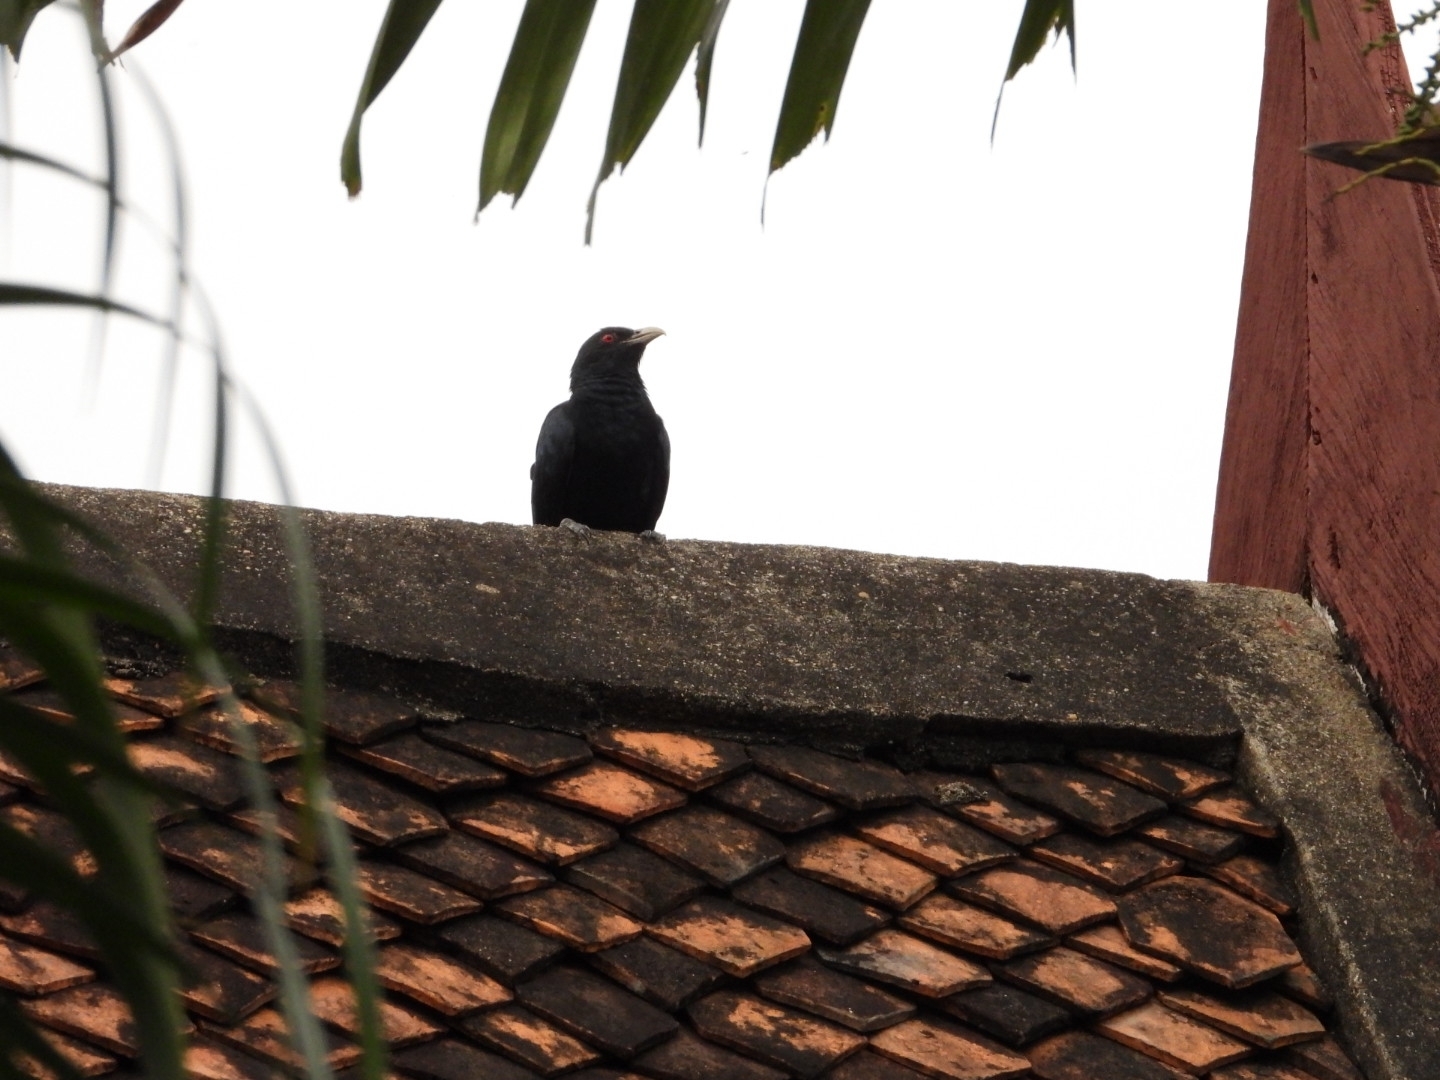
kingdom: Animalia
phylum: Chordata
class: Aves
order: Cuculiformes
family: Cuculidae
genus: Eudynamys
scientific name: Eudynamys scolopaceus
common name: Asian koel
